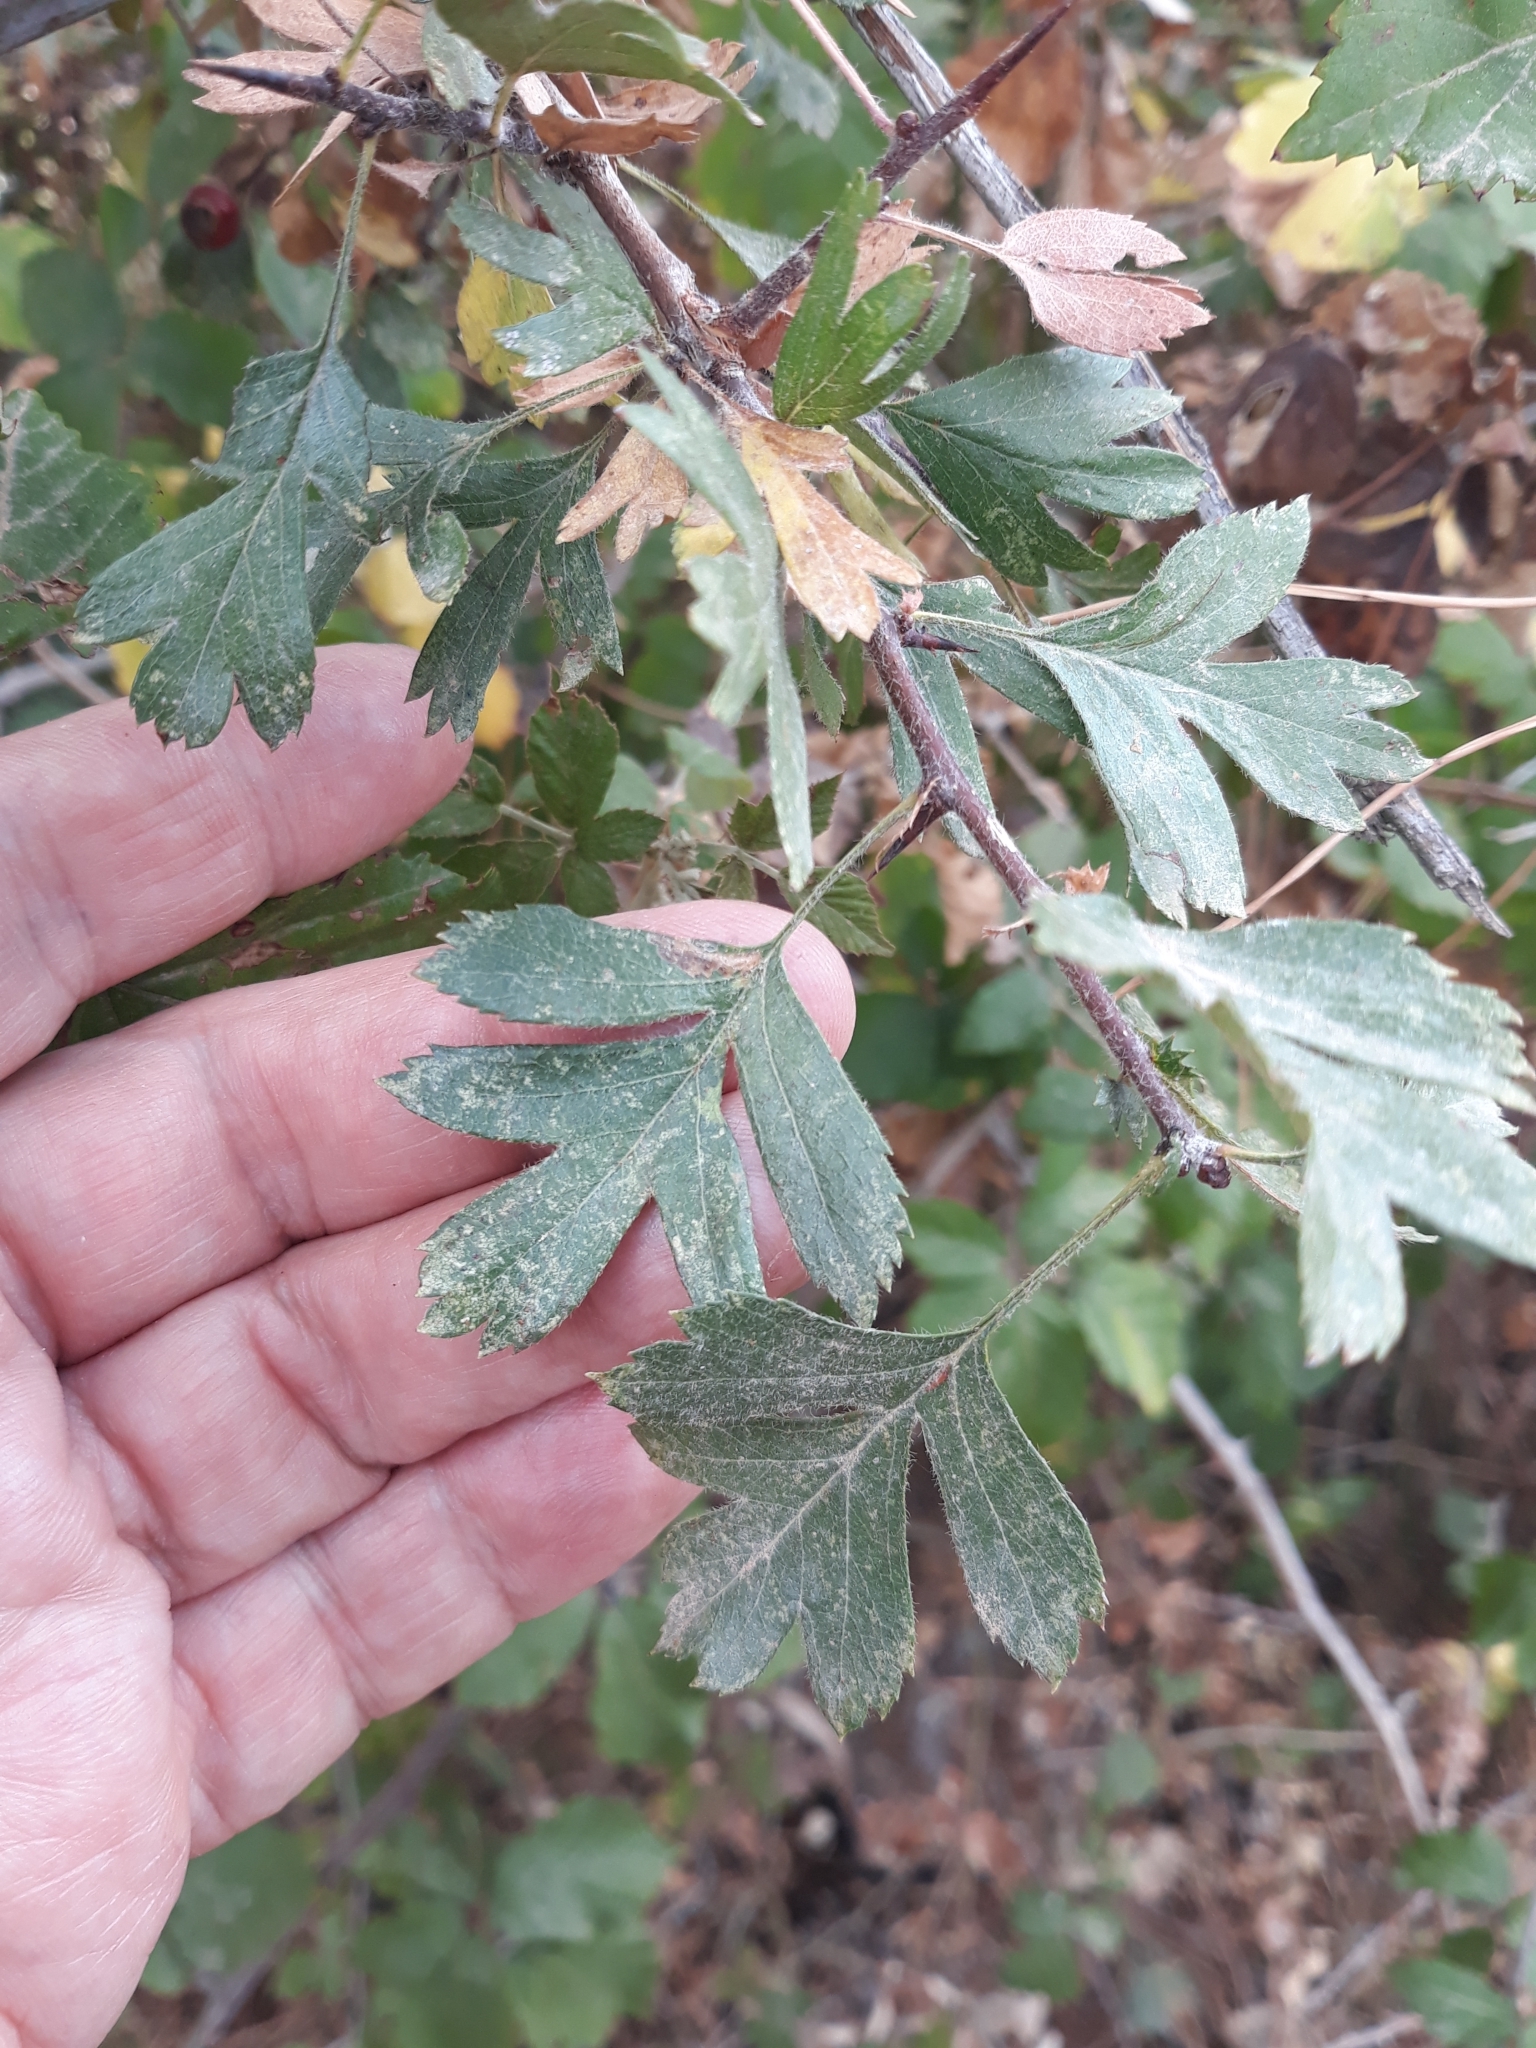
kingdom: Plantae
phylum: Tracheophyta
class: Magnoliopsida
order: Rosales
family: Rosaceae
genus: Crataegus
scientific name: Crataegus monogyna
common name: Hawthorn
